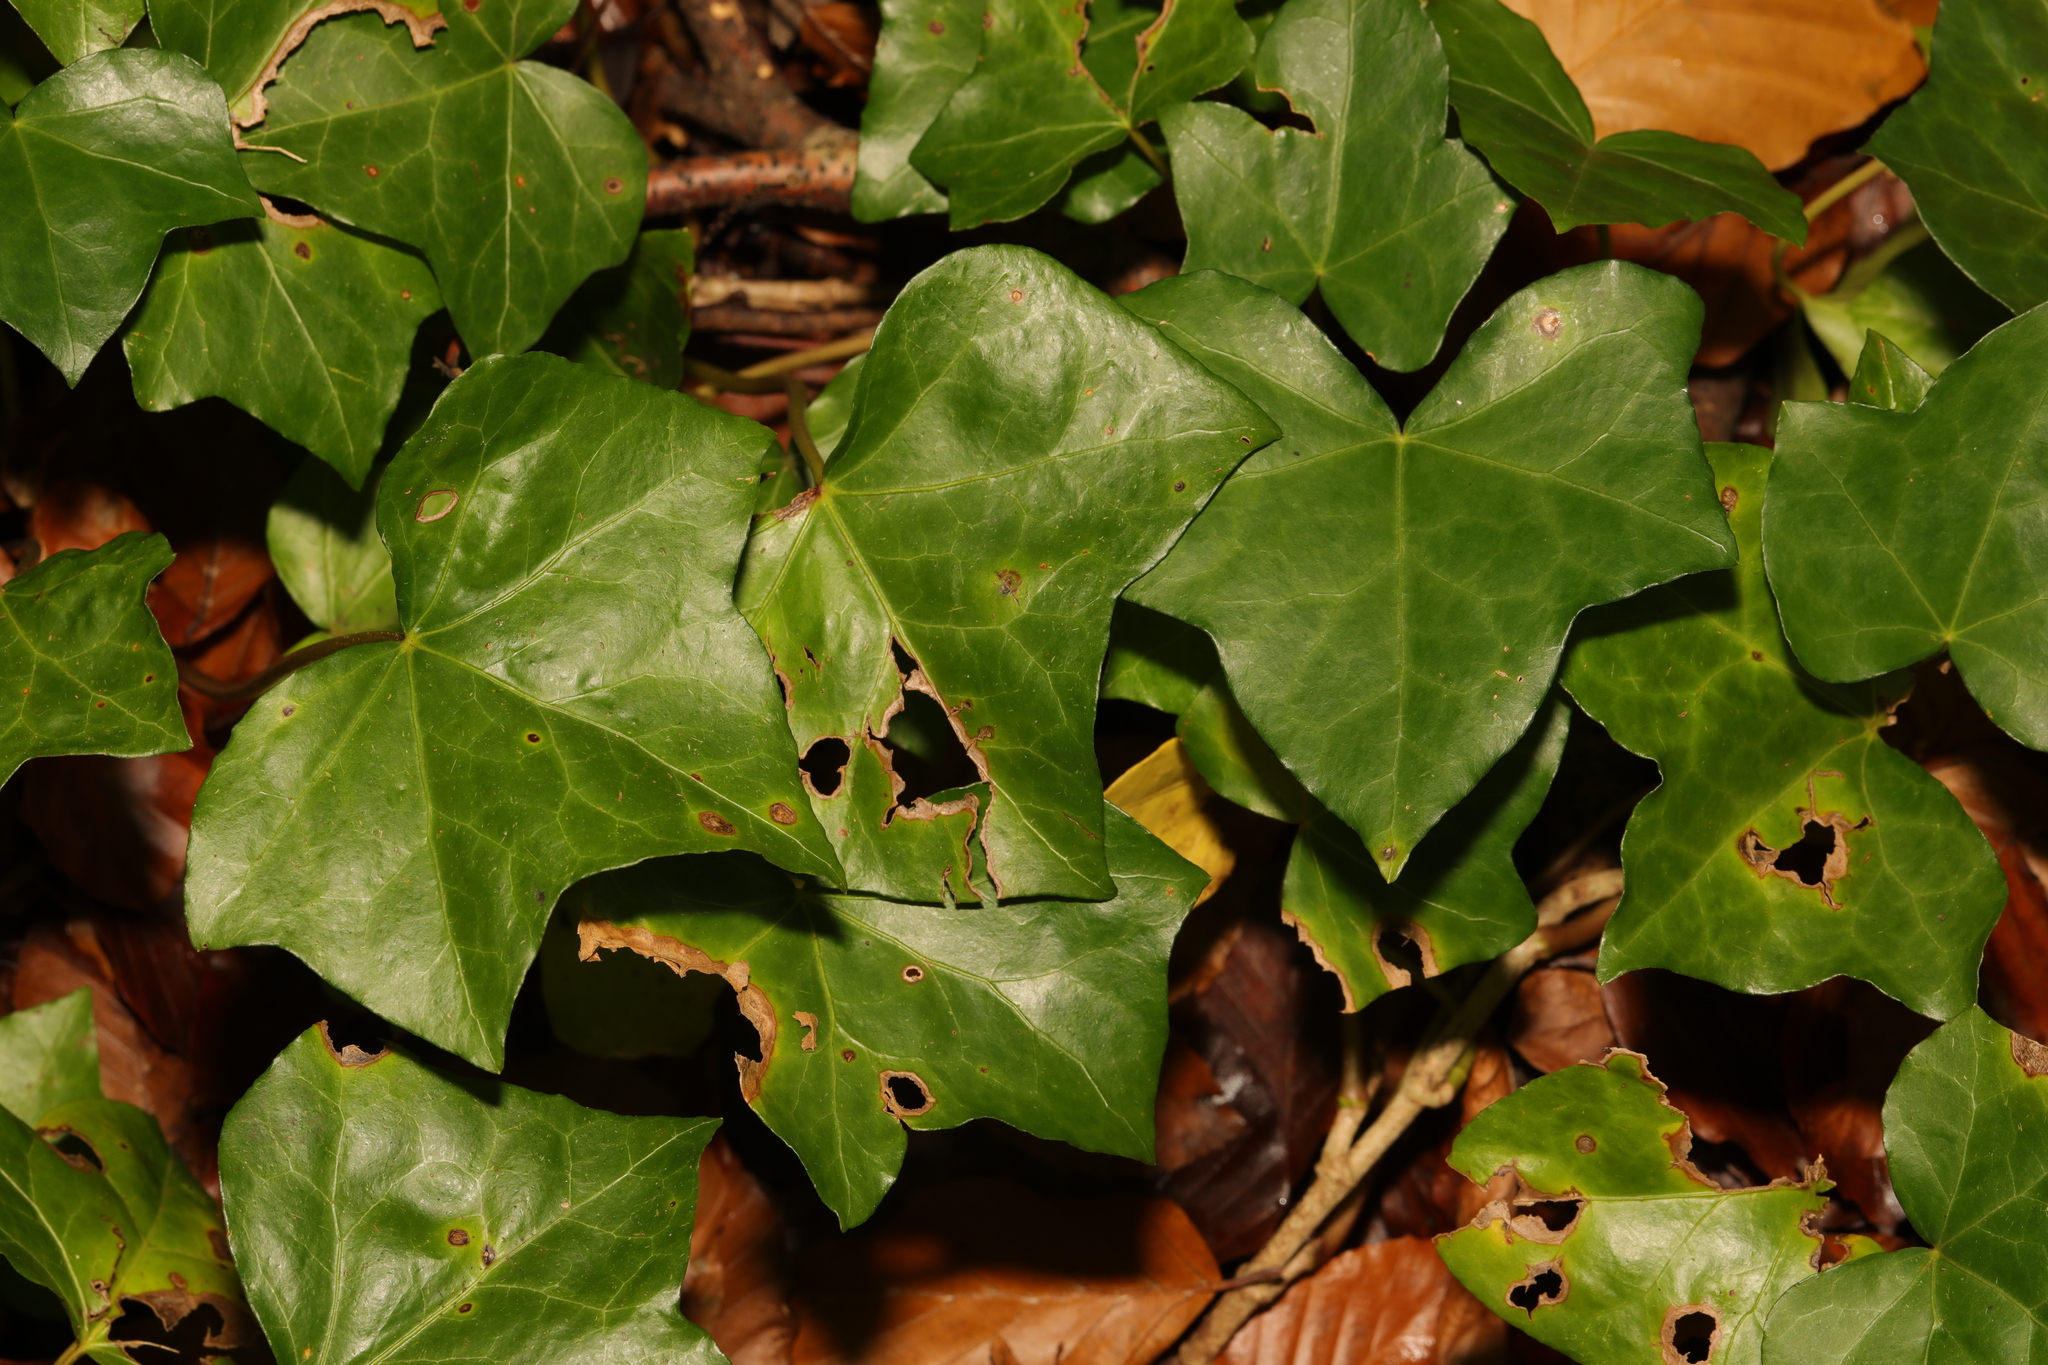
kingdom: Plantae
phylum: Tracheophyta
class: Magnoliopsida
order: Apiales
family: Araliaceae
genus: Hedera
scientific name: Hedera helix
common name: Ivy
